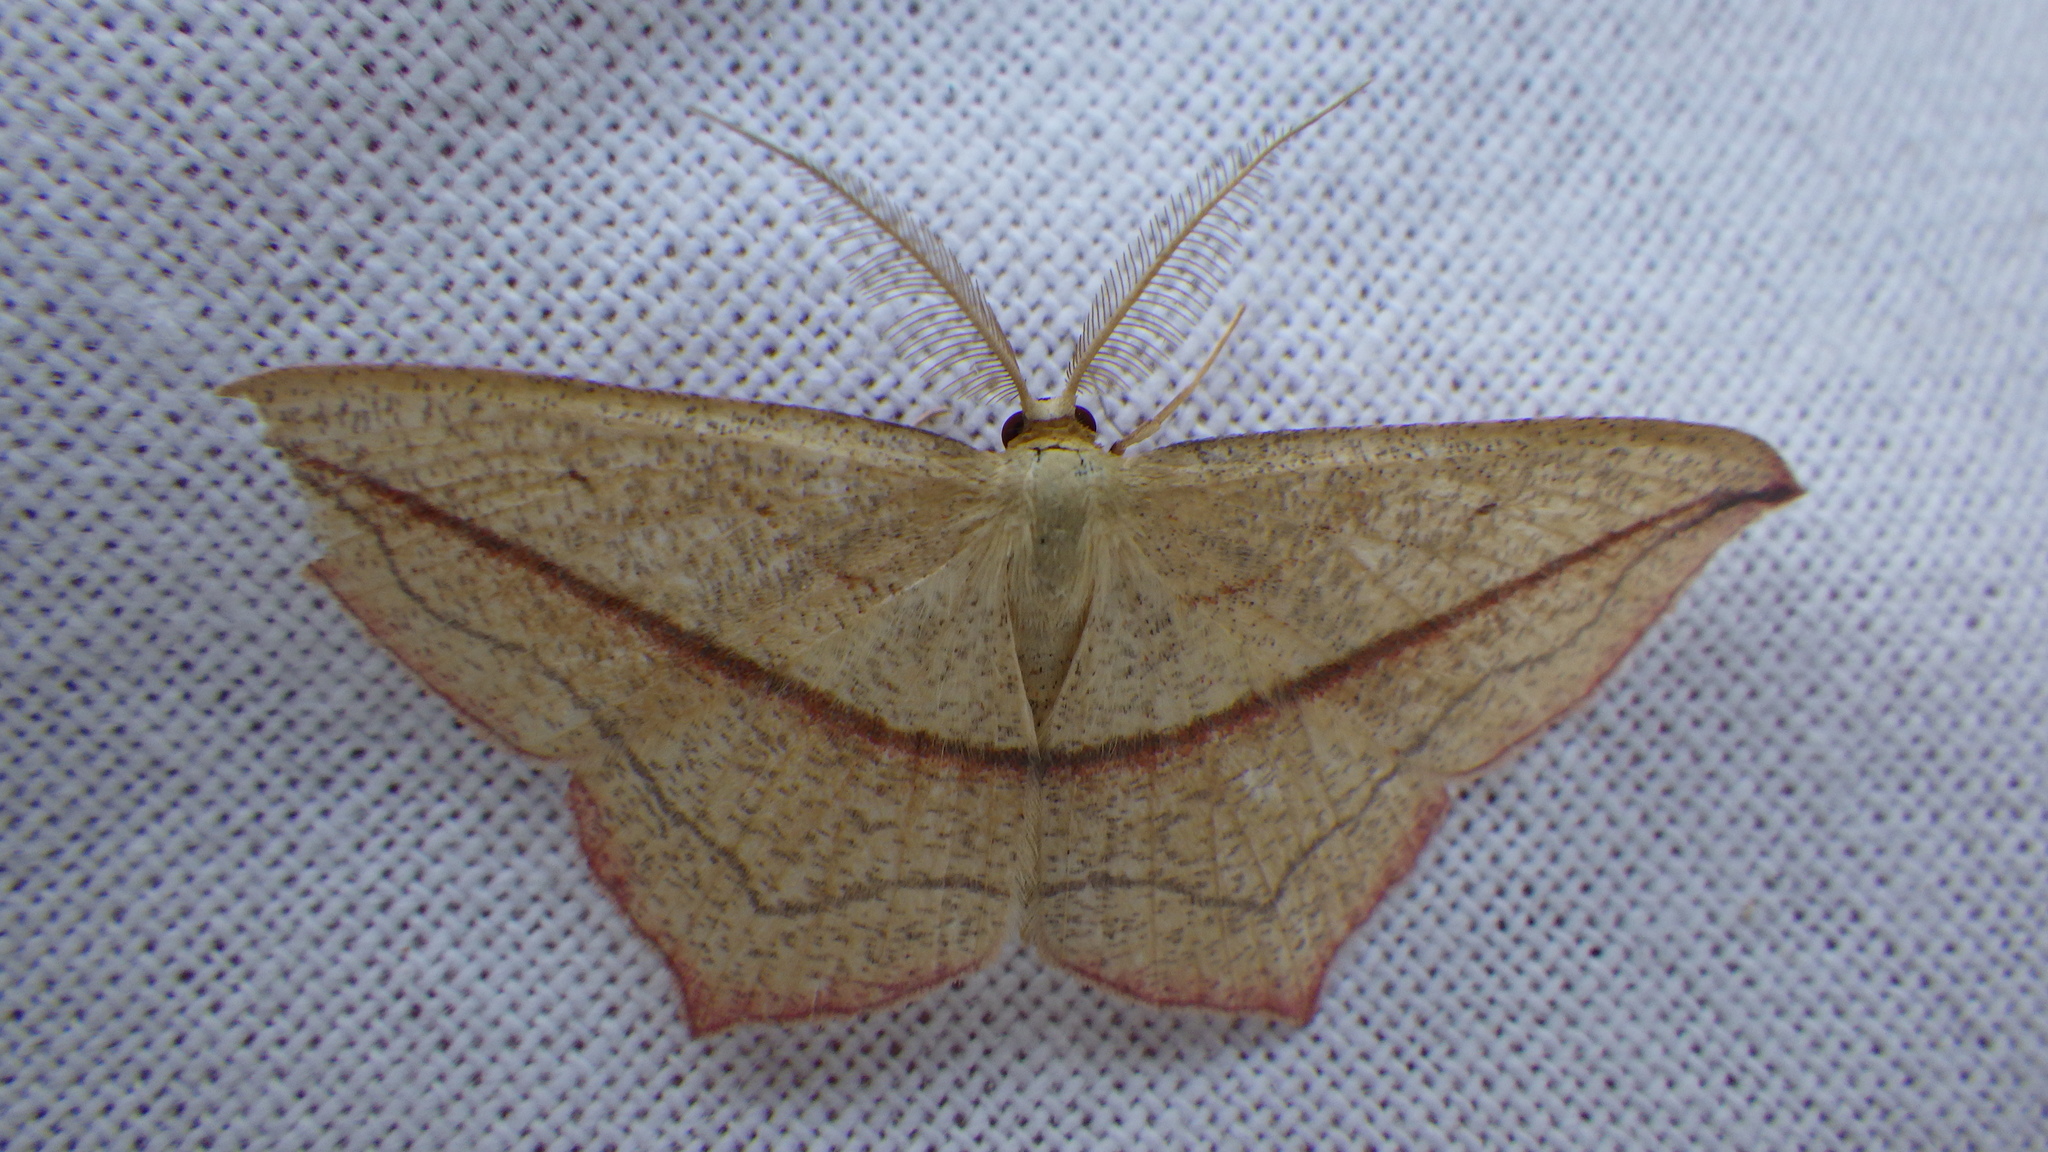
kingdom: Animalia
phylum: Arthropoda
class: Insecta
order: Lepidoptera
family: Geometridae
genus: Timandra
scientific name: Timandra comae
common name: Blood-vein
